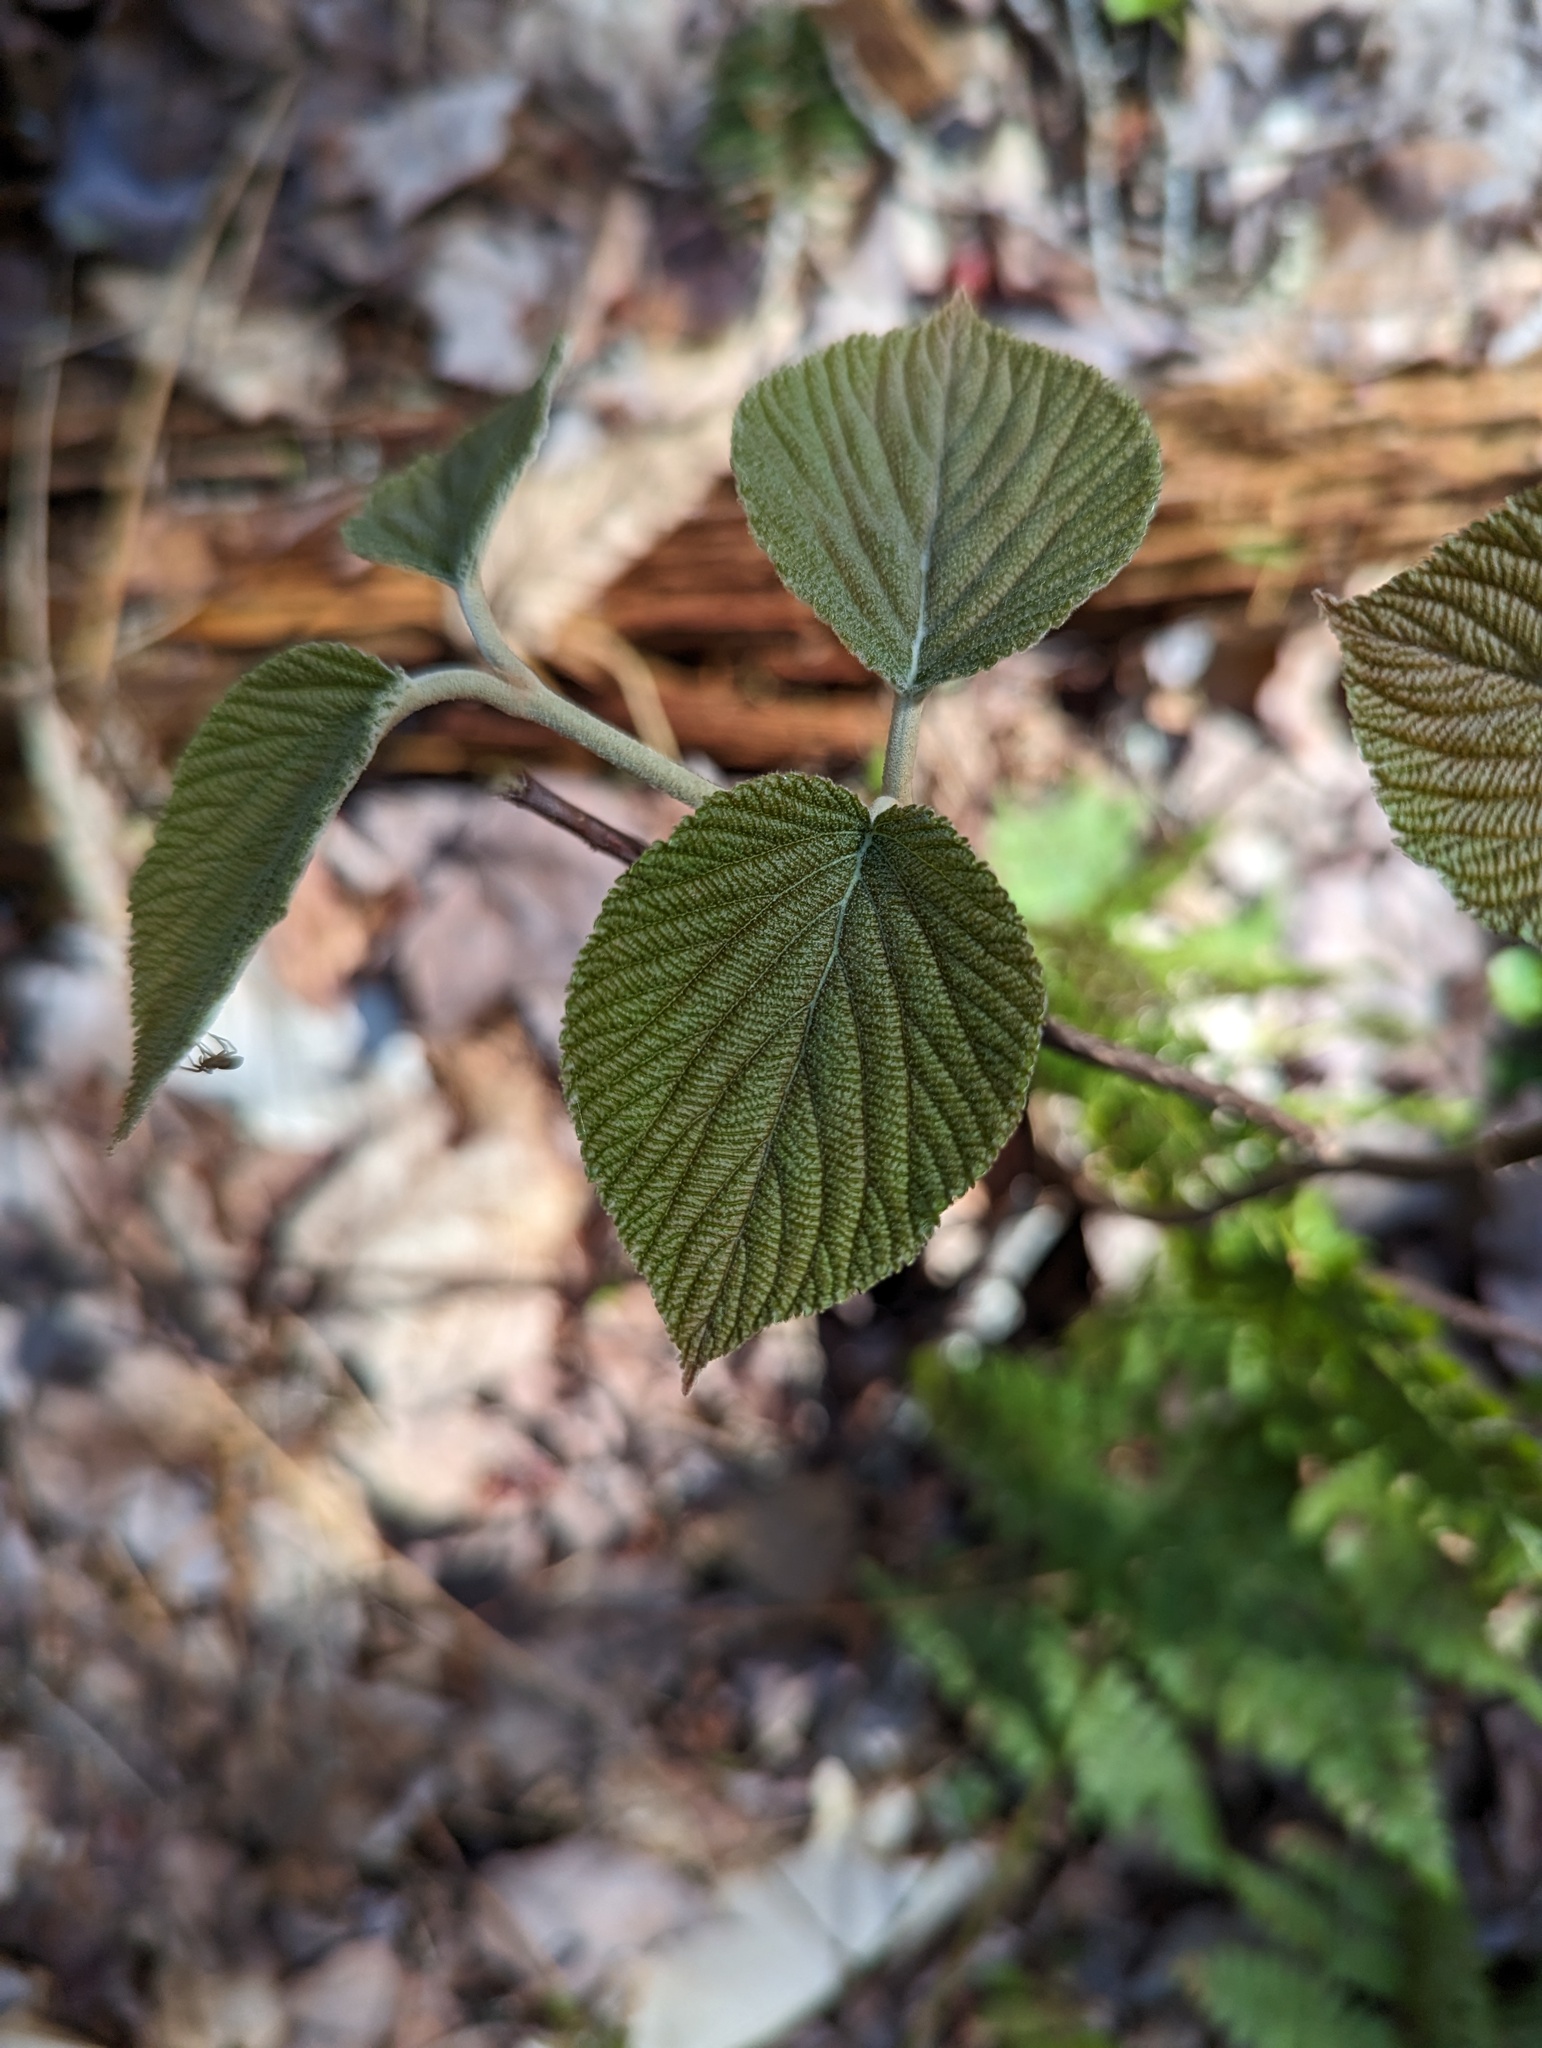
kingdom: Plantae
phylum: Tracheophyta
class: Magnoliopsida
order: Dipsacales
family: Viburnaceae
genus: Viburnum
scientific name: Viburnum lantanoides
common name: Hobblebush
